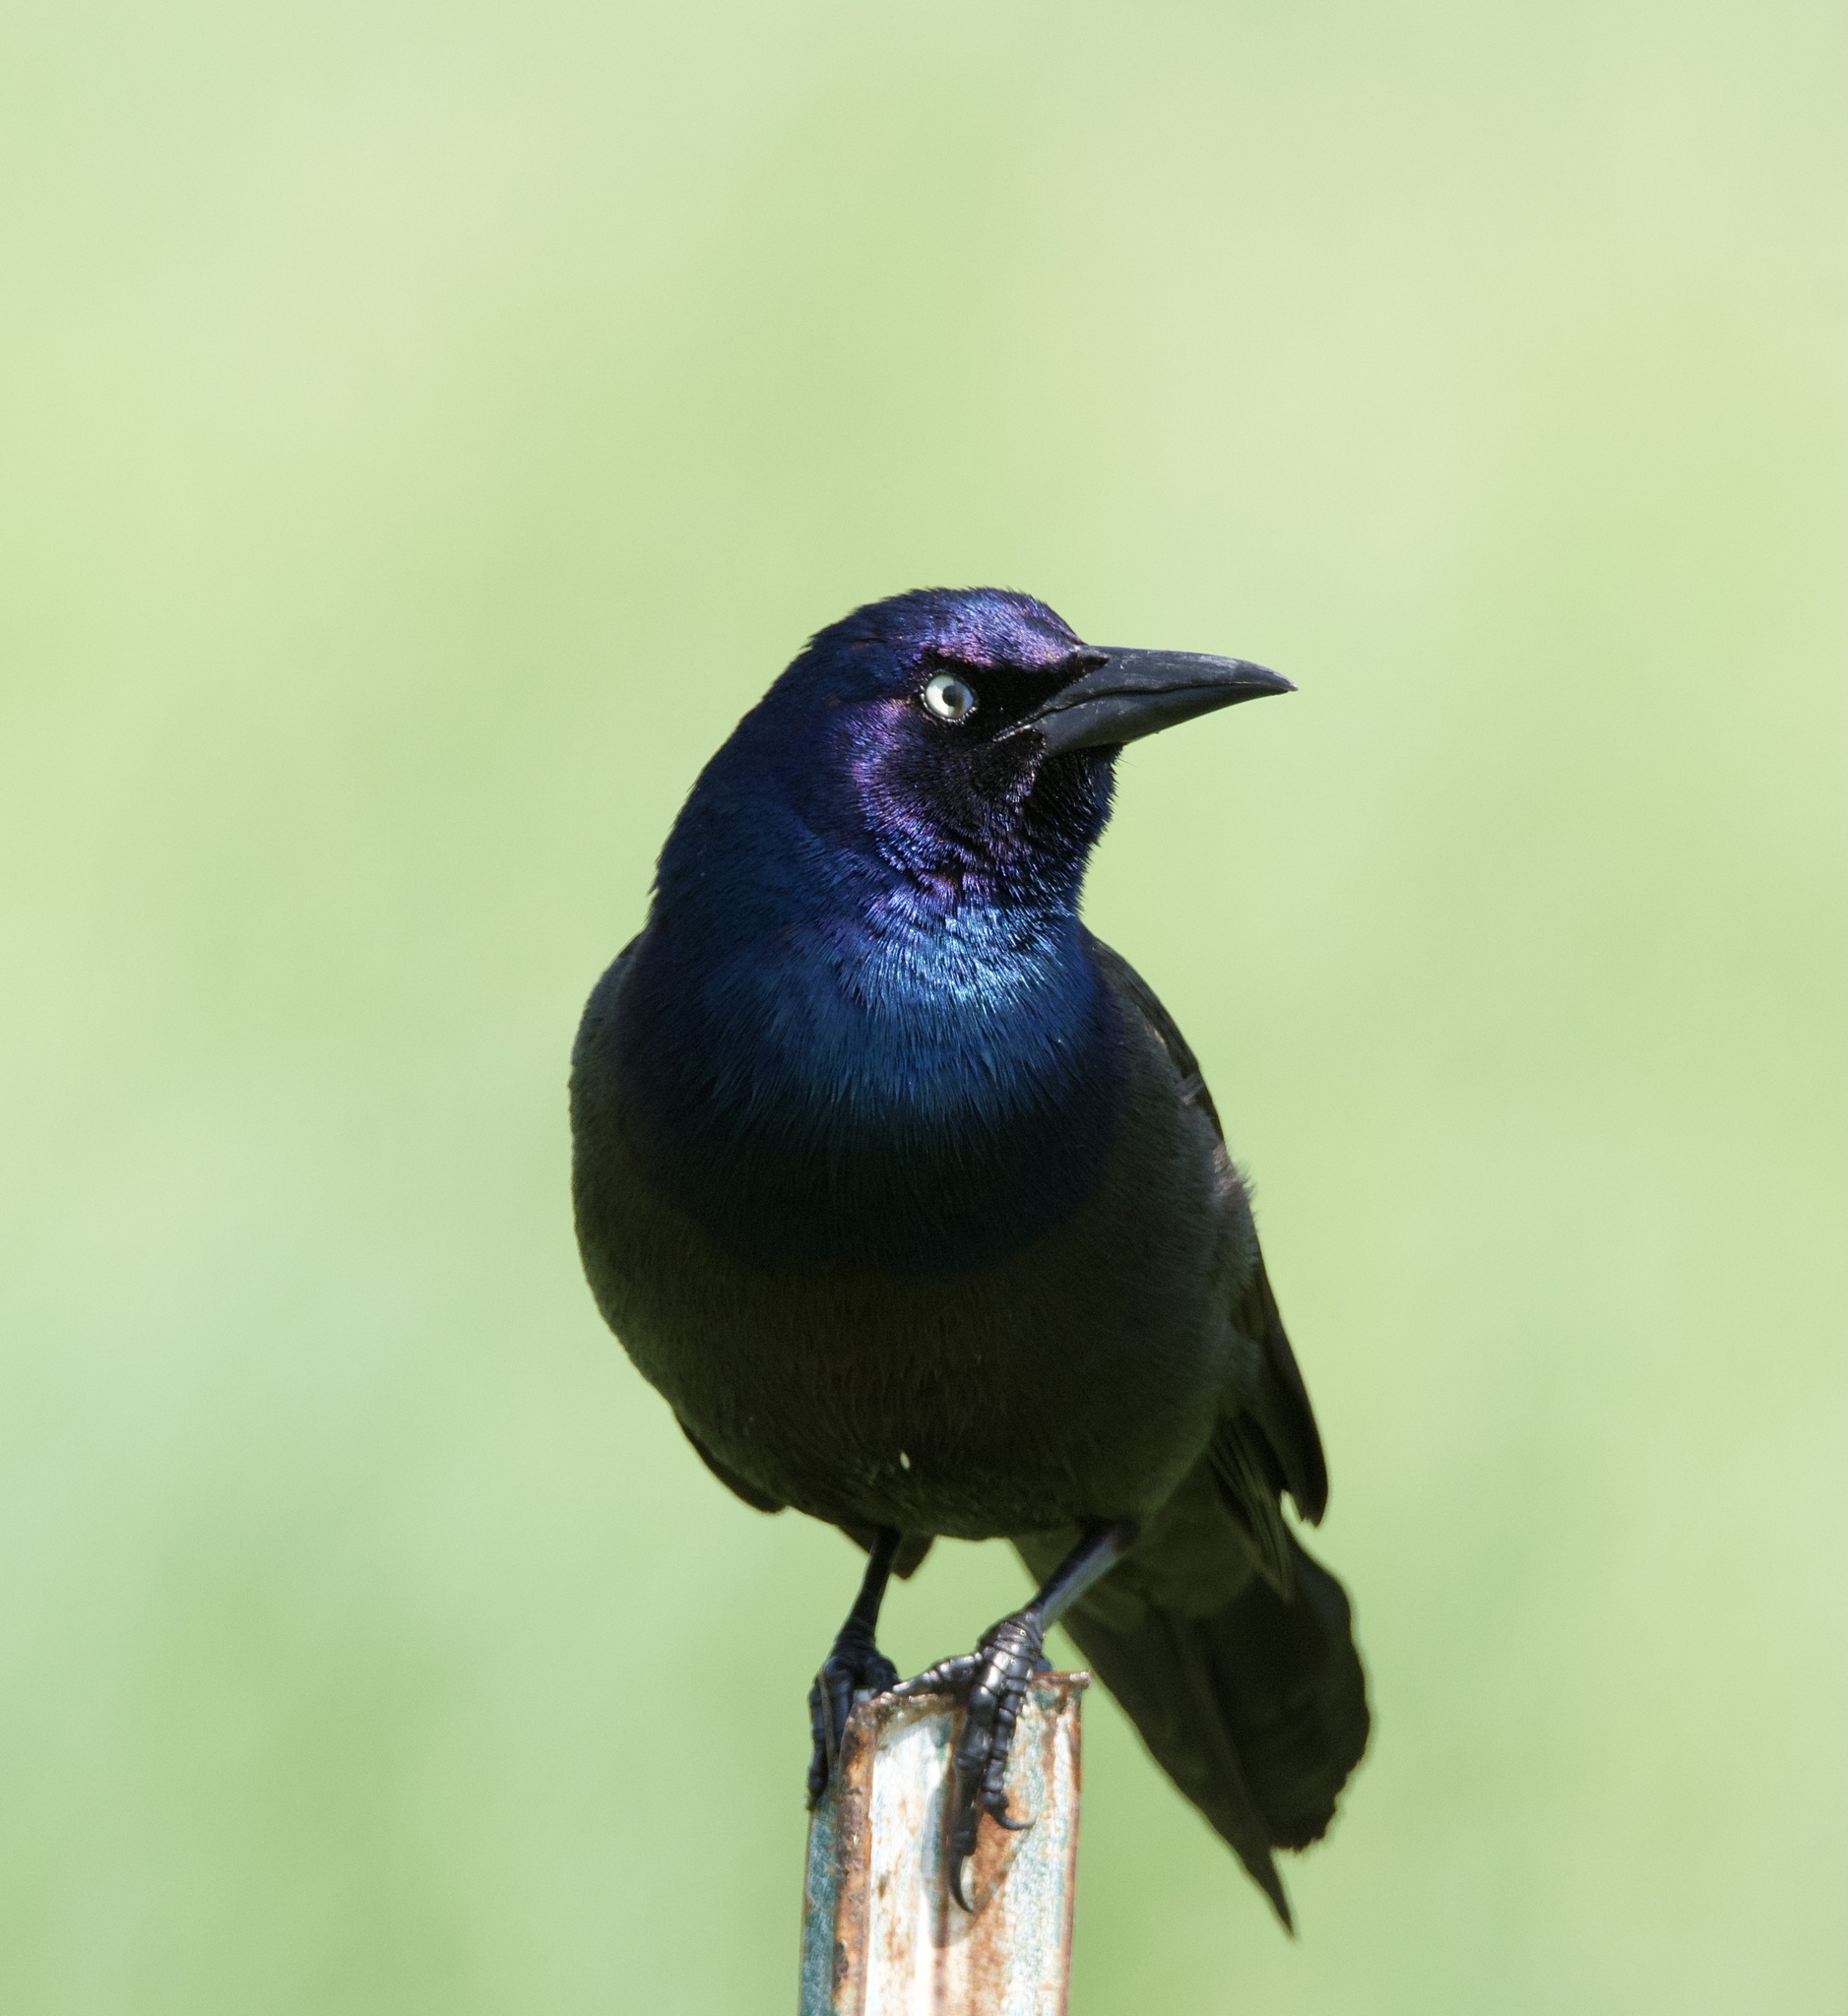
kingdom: Animalia
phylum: Chordata
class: Aves
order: Passeriformes
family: Icteridae
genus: Quiscalus
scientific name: Quiscalus quiscula
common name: Common grackle
